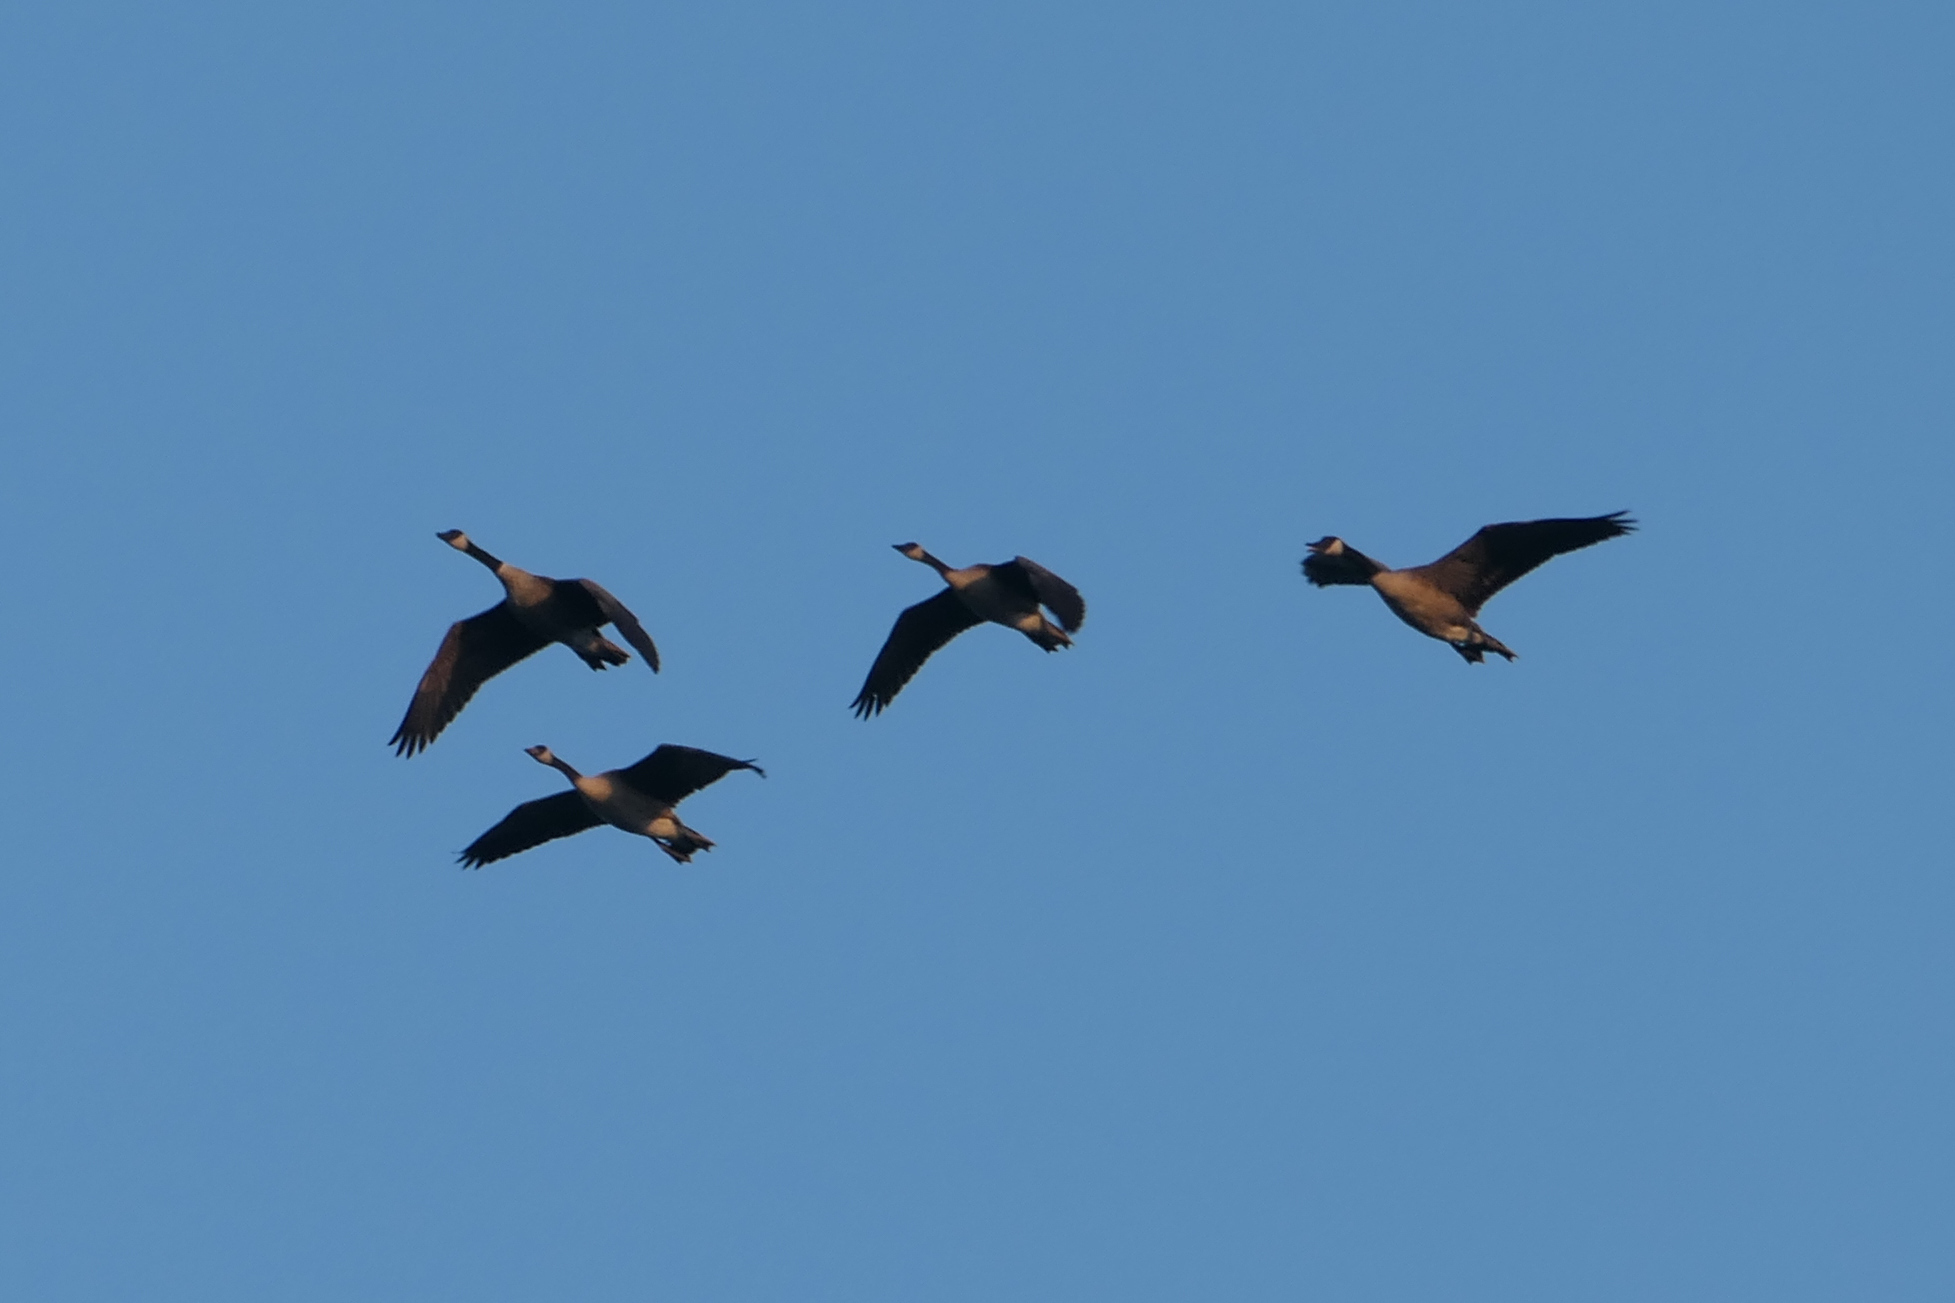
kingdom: Animalia
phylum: Chordata
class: Aves
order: Anseriformes
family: Anatidae
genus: Branta
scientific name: Branta canadensis
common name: Canada goose
